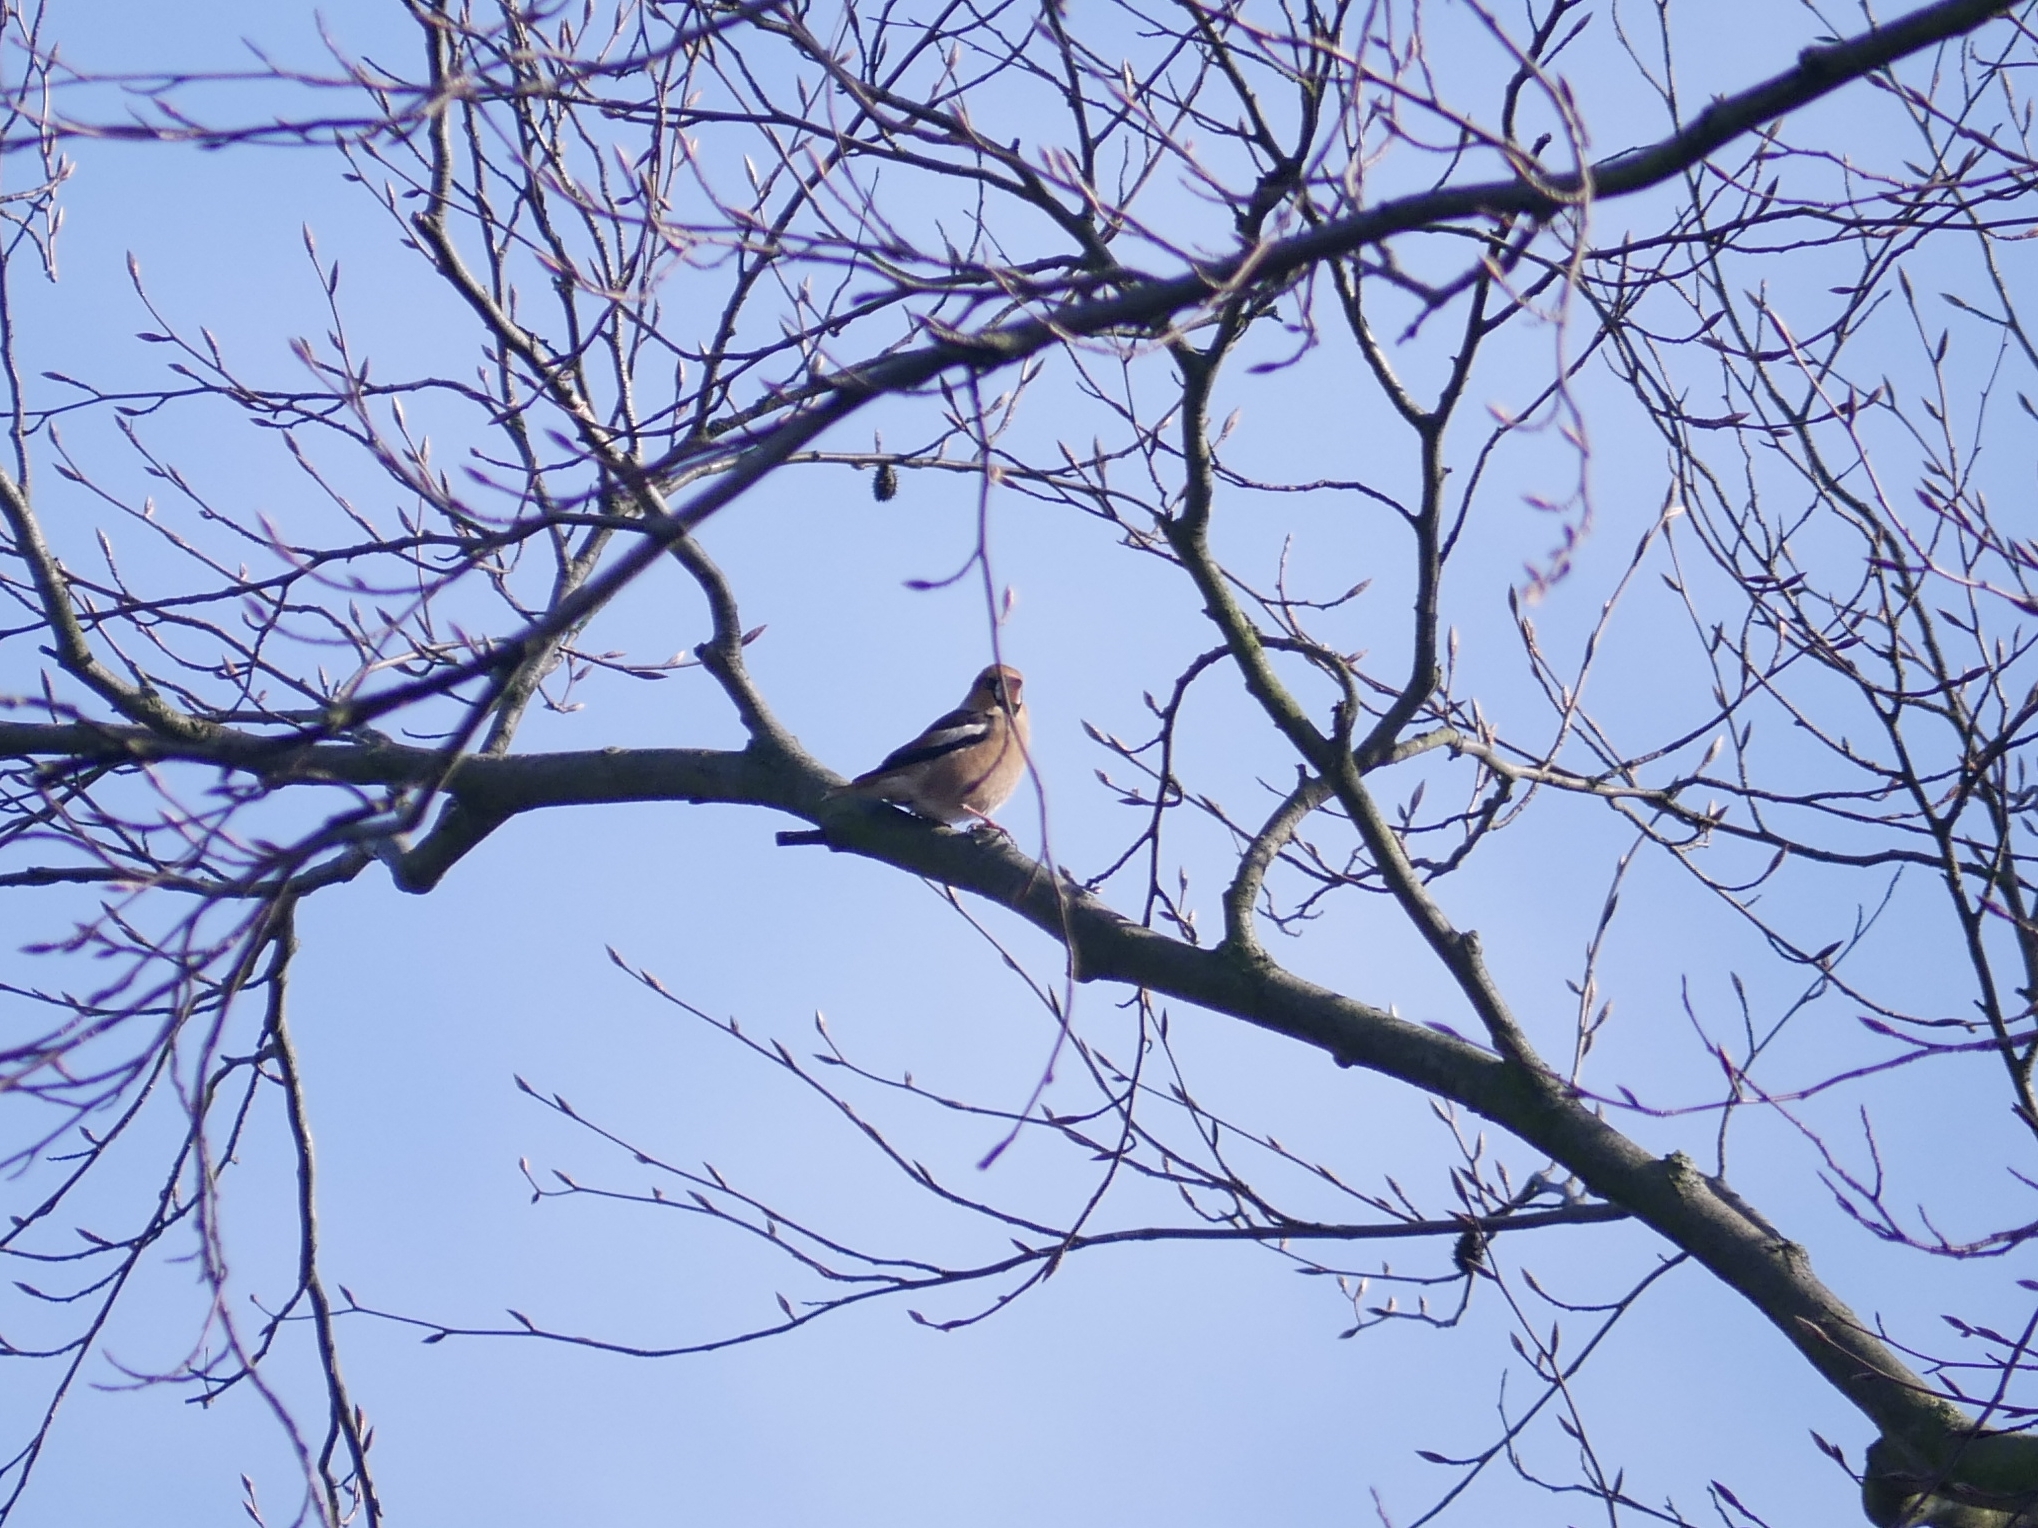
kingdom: Animalia
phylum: Chordata
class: Aves
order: Passeriformes
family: Fringillidae
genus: Coccothraustes
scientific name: Coccothraustes coccothraustes
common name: Hawfinch
